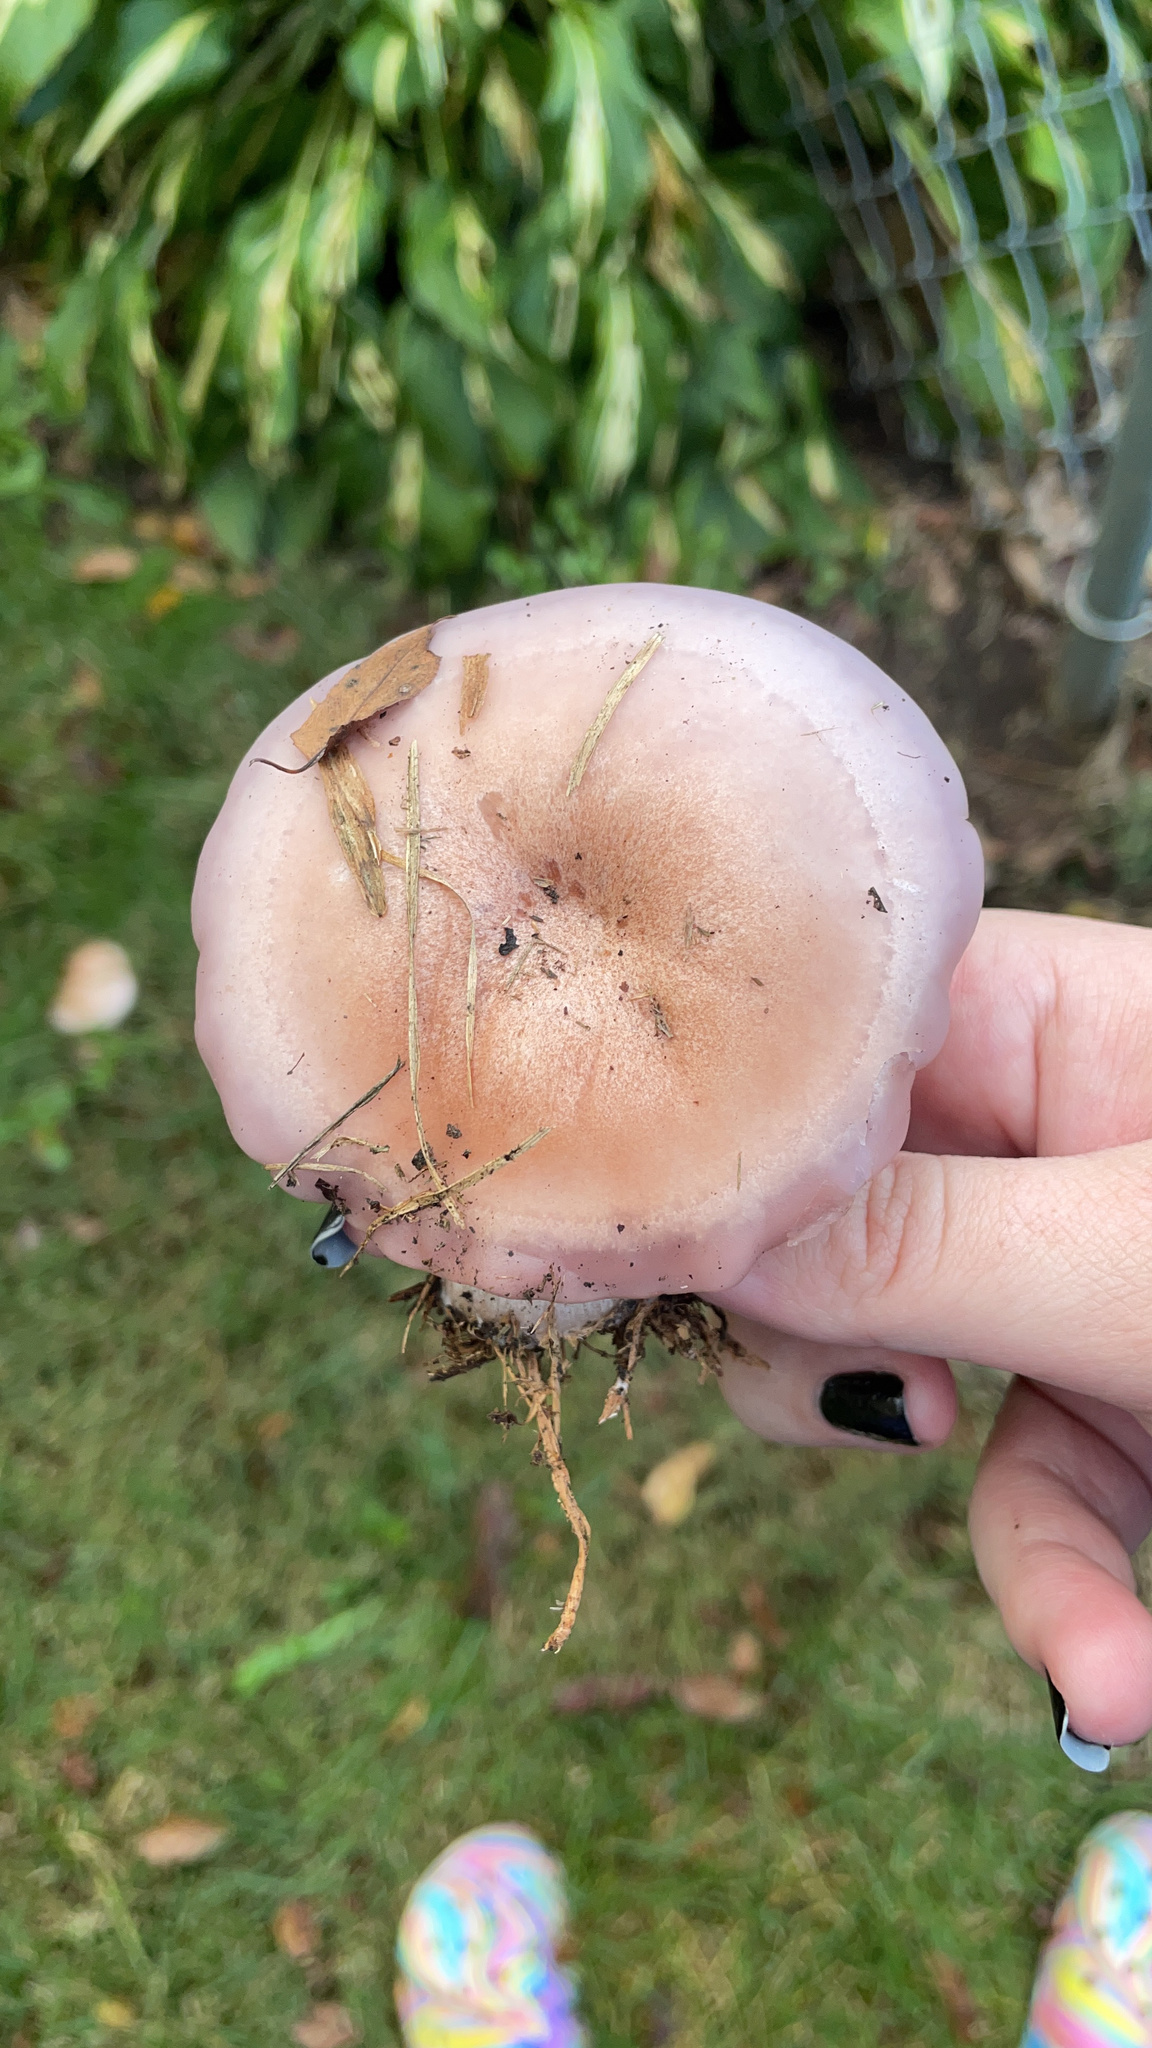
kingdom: Fungi
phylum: Basidiomycota
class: Agaricomycetes
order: Agaricales
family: Tricholomataceae
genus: Collybia
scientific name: Collybia
